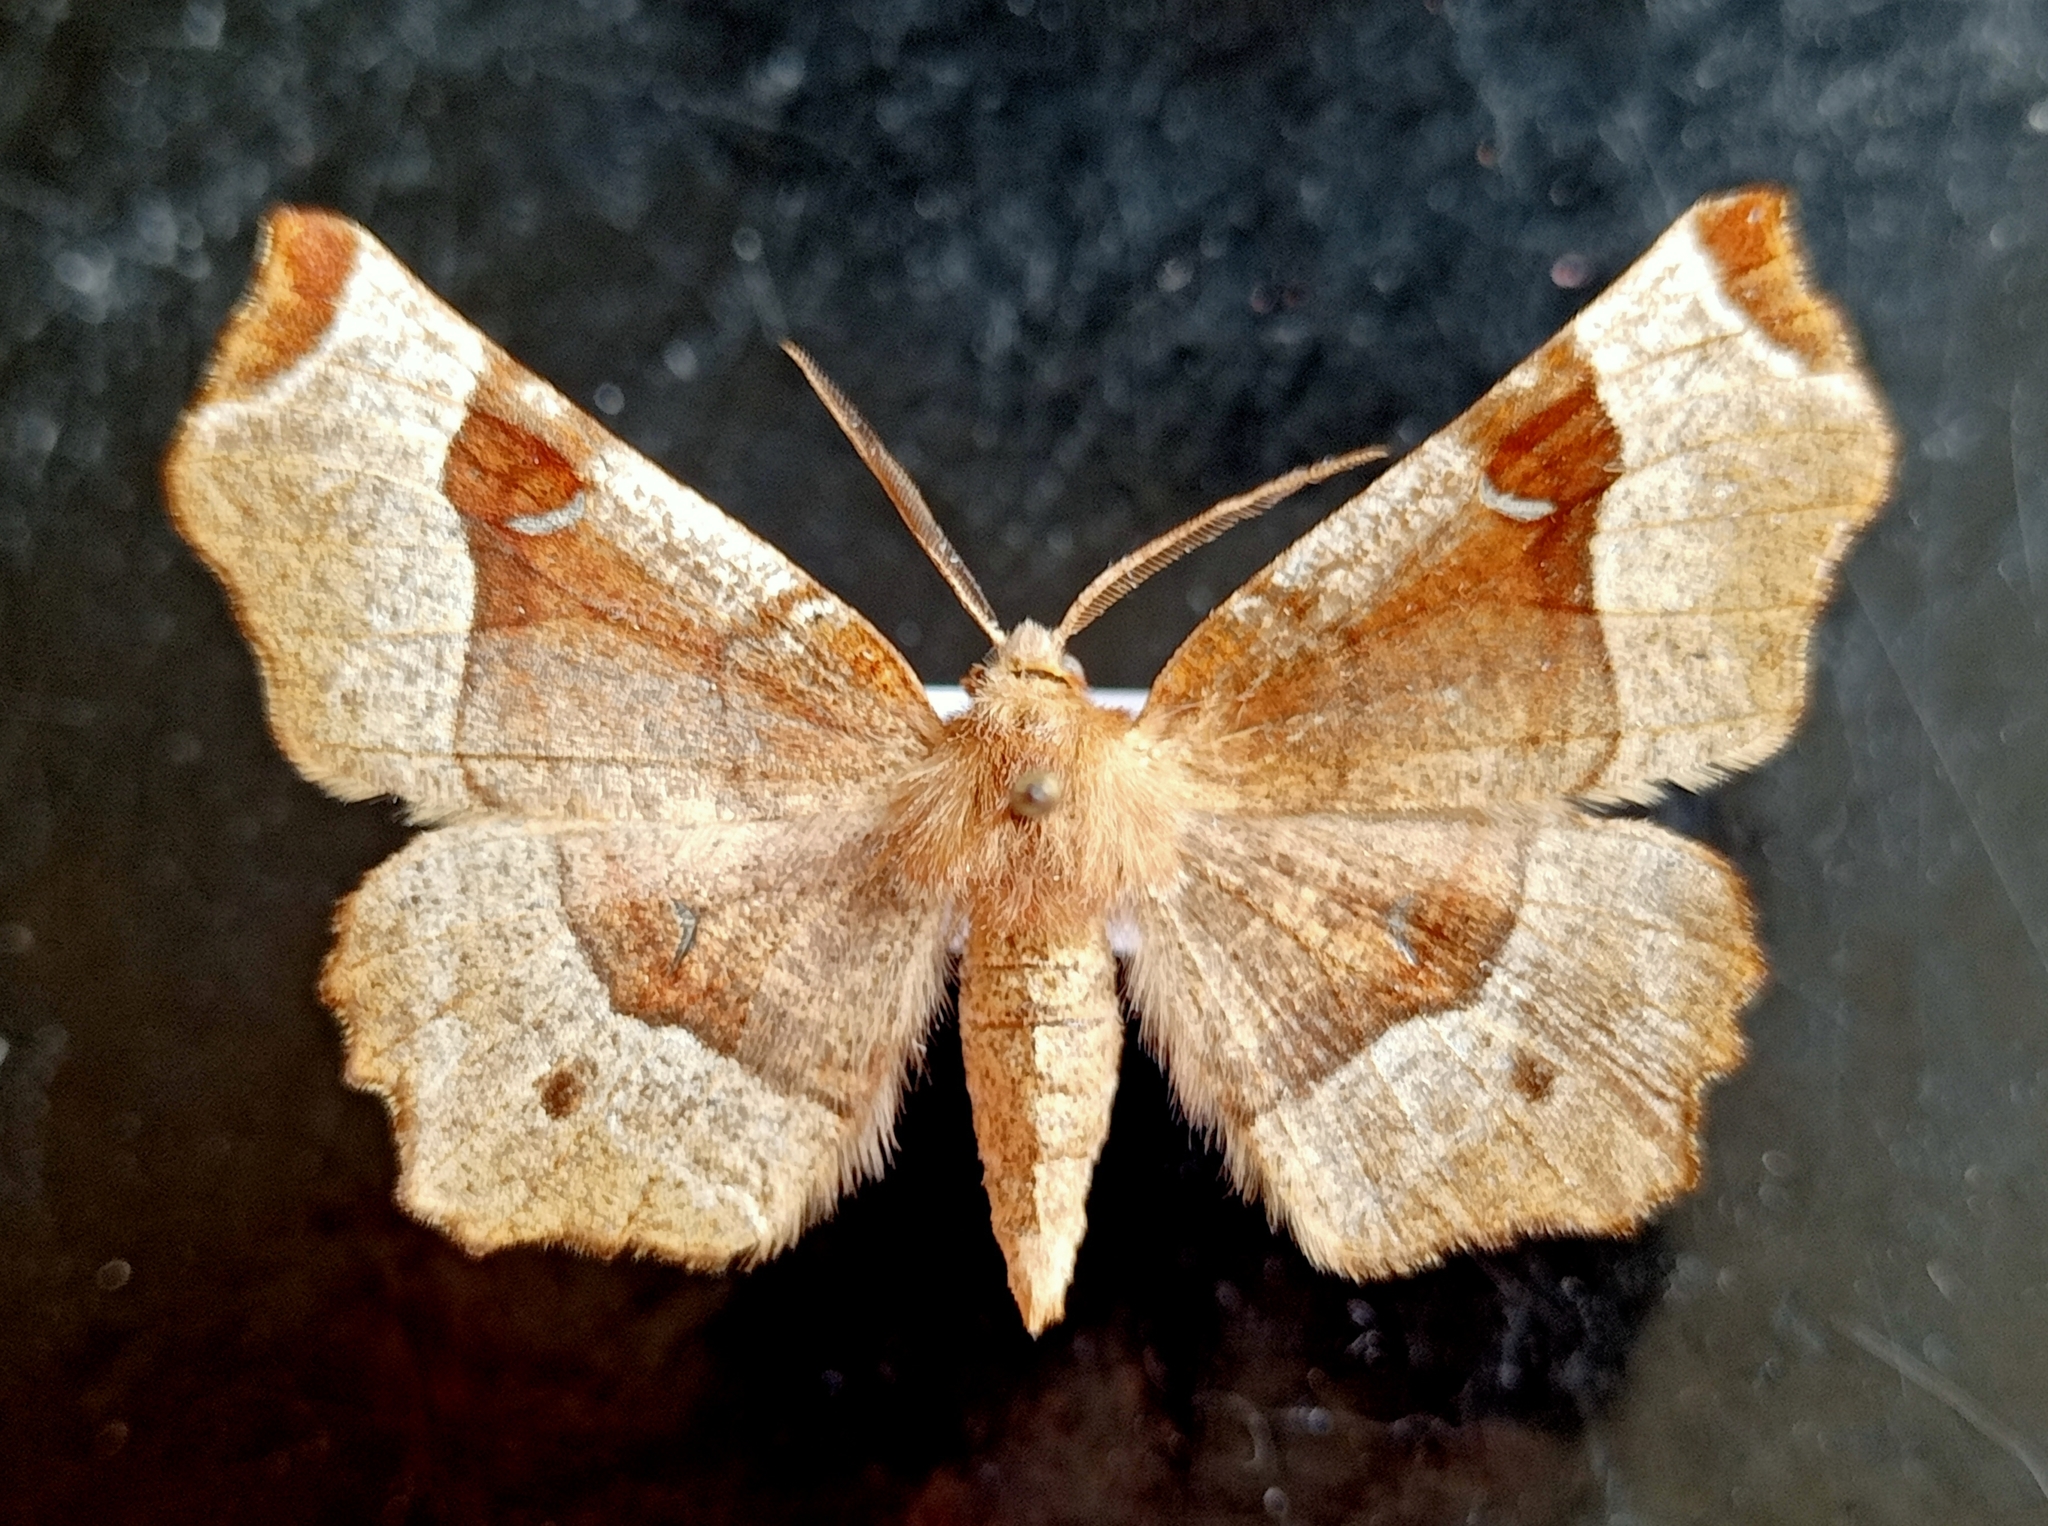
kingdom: Animalia
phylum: Arthropoda
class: Insecta
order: Lepidoptera
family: Geometridae
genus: Selenia
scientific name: Selenia tetralunaria
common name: Purple thorn
